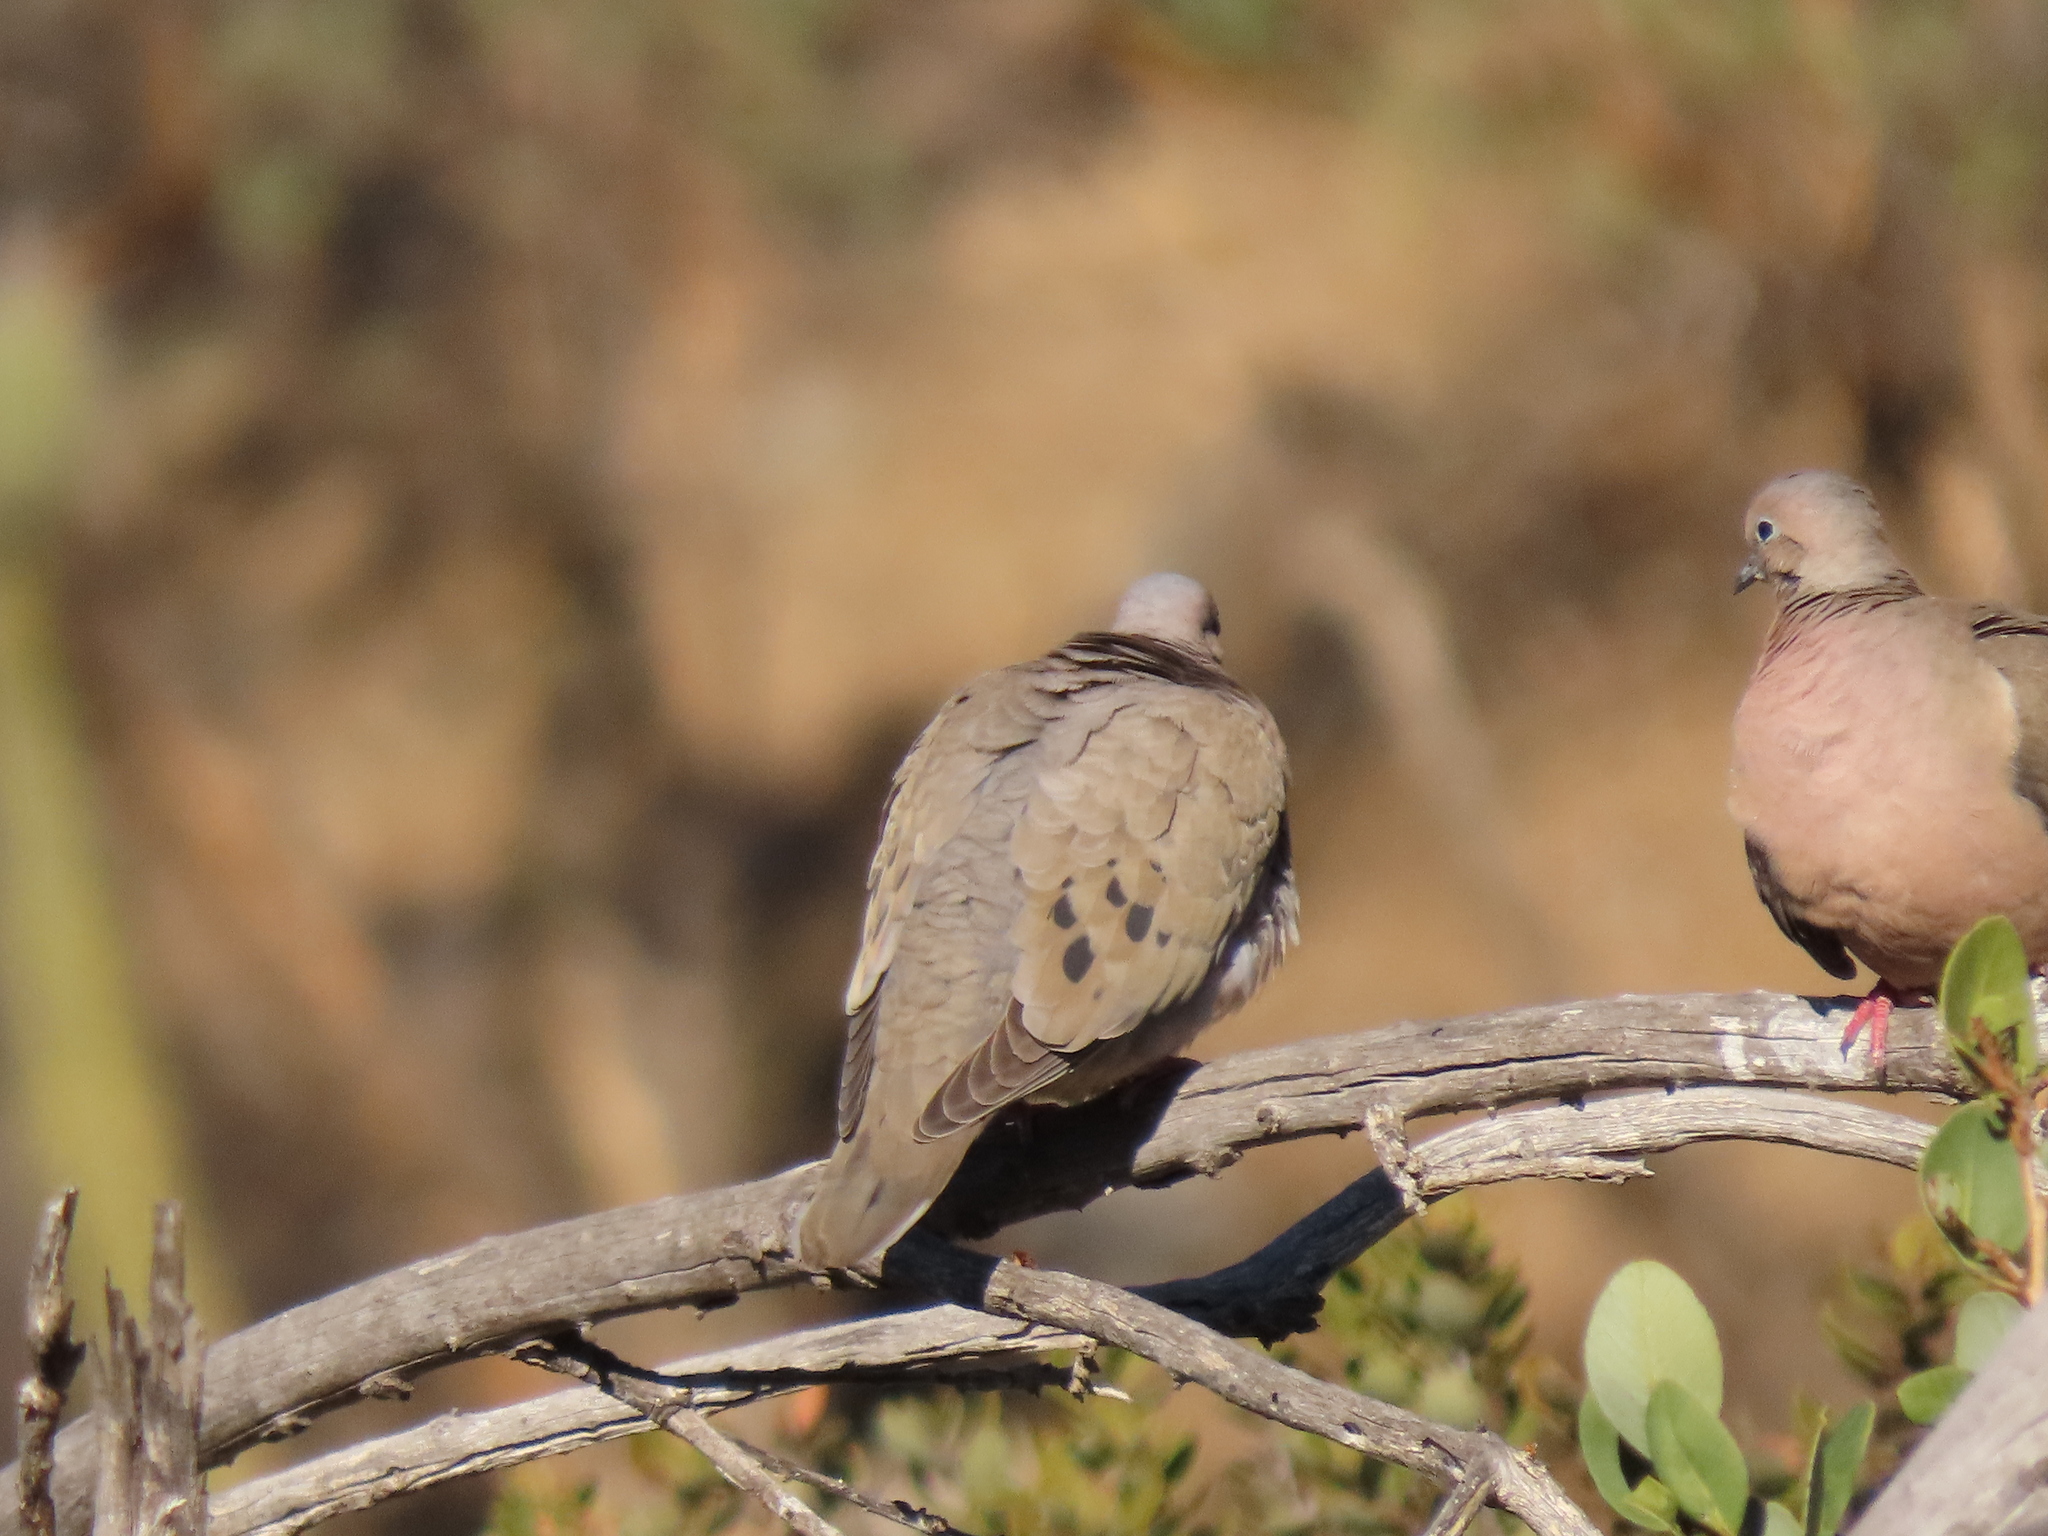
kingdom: Animalia
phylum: Chordata
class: Aves
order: Columbiformes
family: Columbidae
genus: Zenaida
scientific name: Zenaida auriculata
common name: Eared dove
